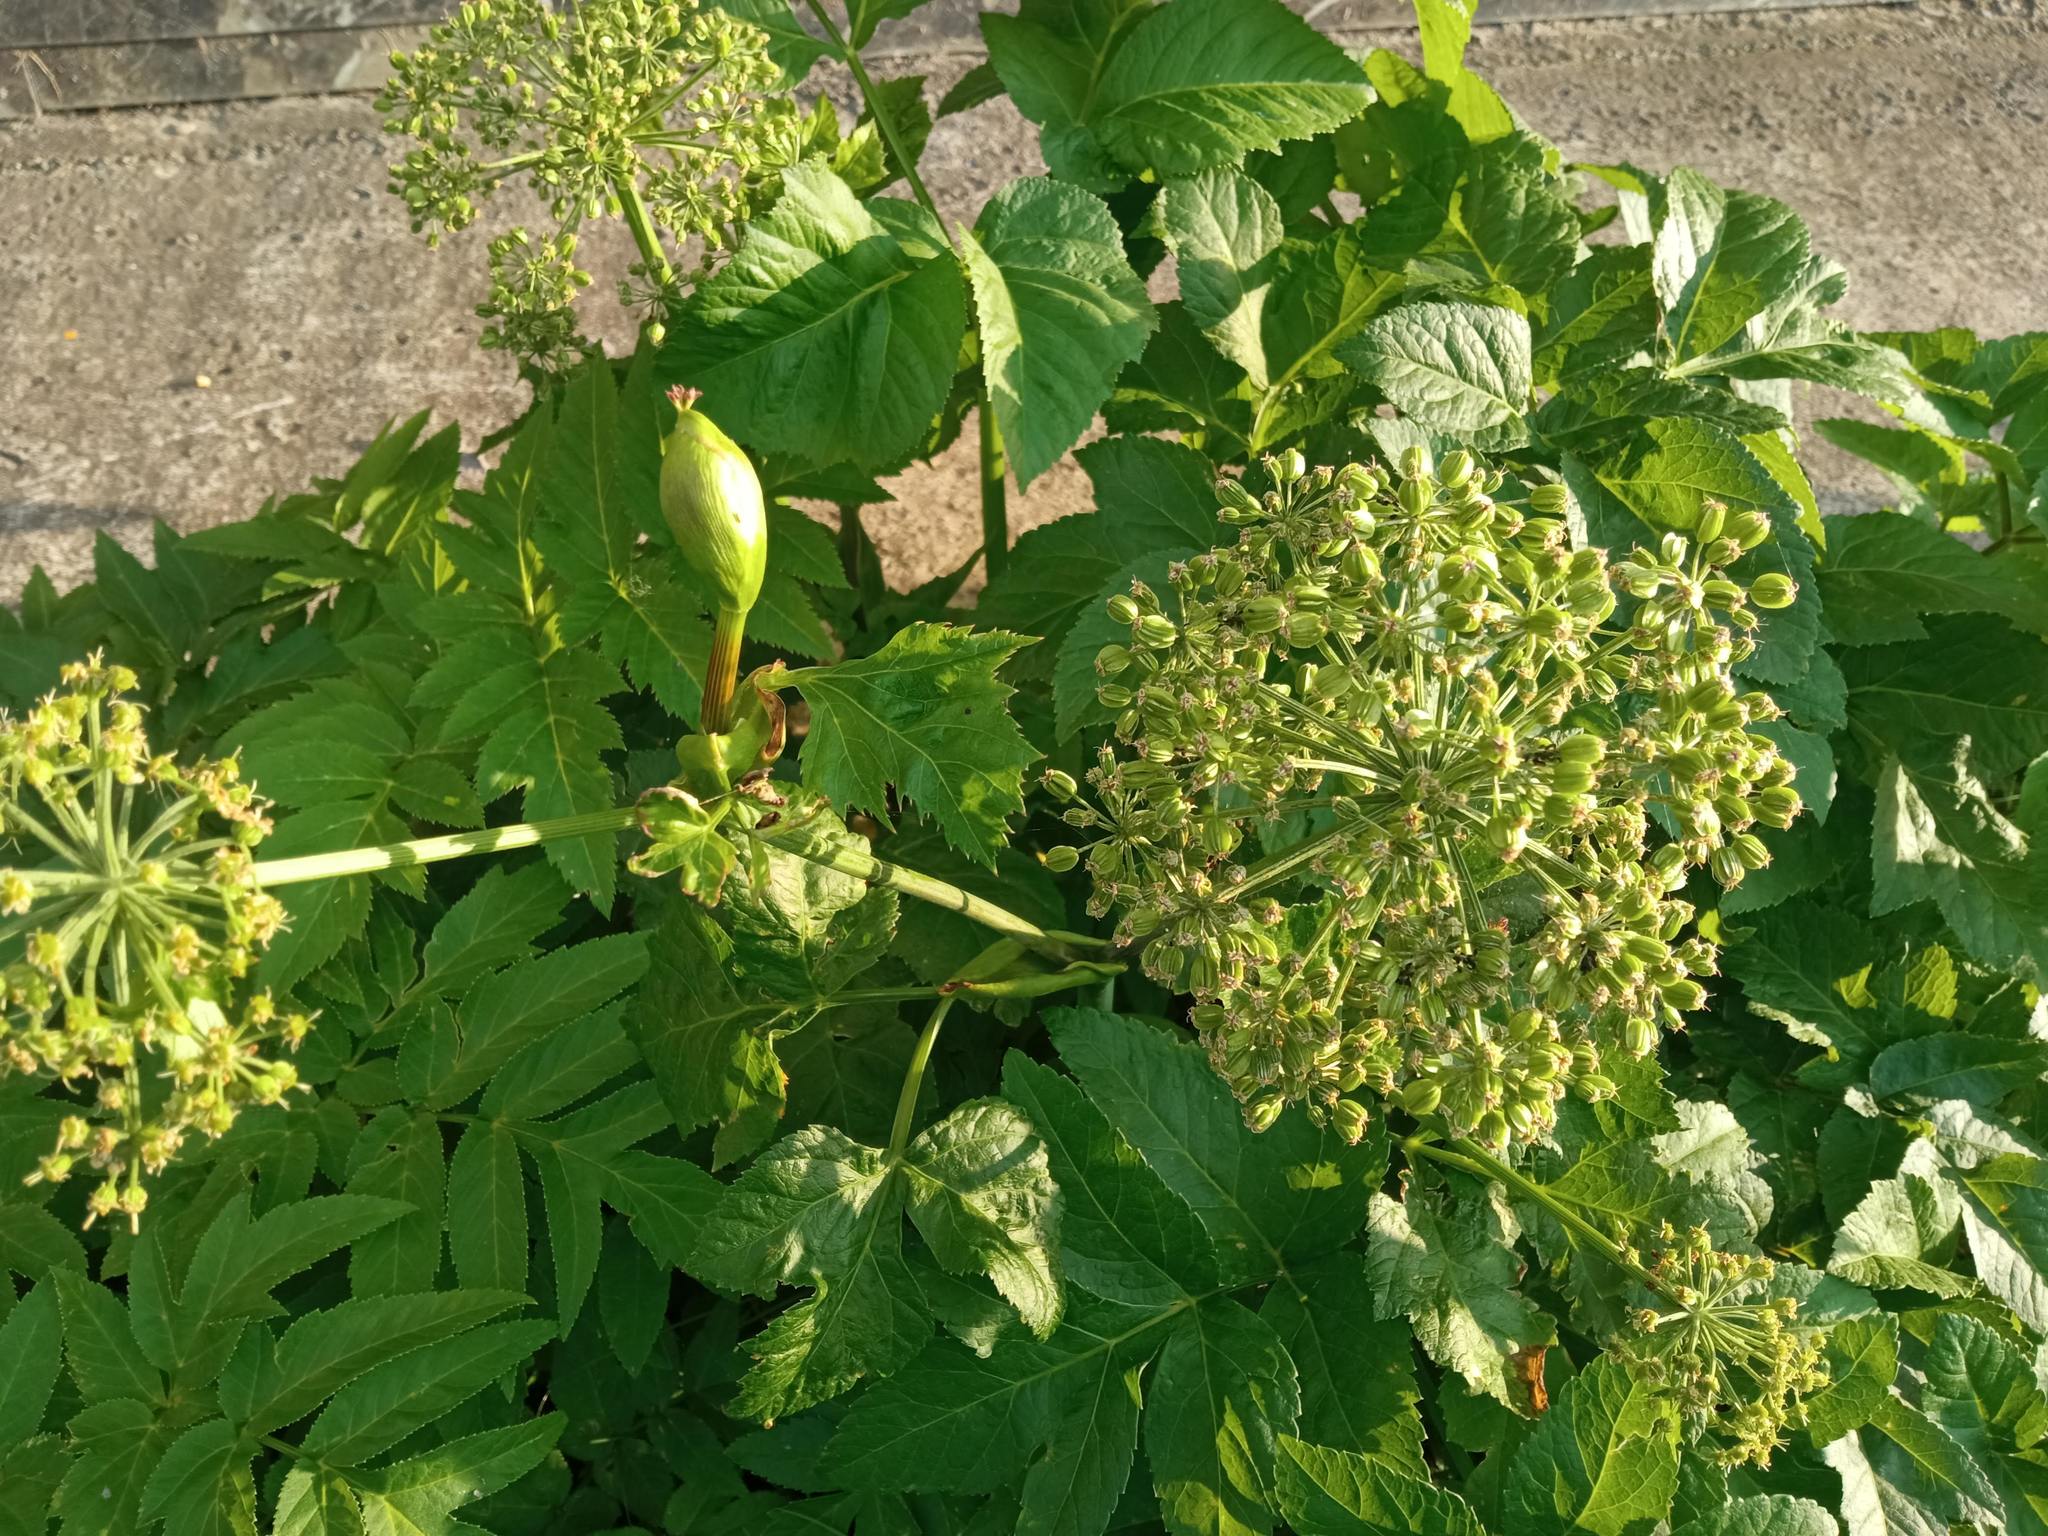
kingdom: Plantae
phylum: Tracheophyta
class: Magnoliopsida
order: Apiales
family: Apiaceae
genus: Angelica
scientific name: Angelica decurrens
